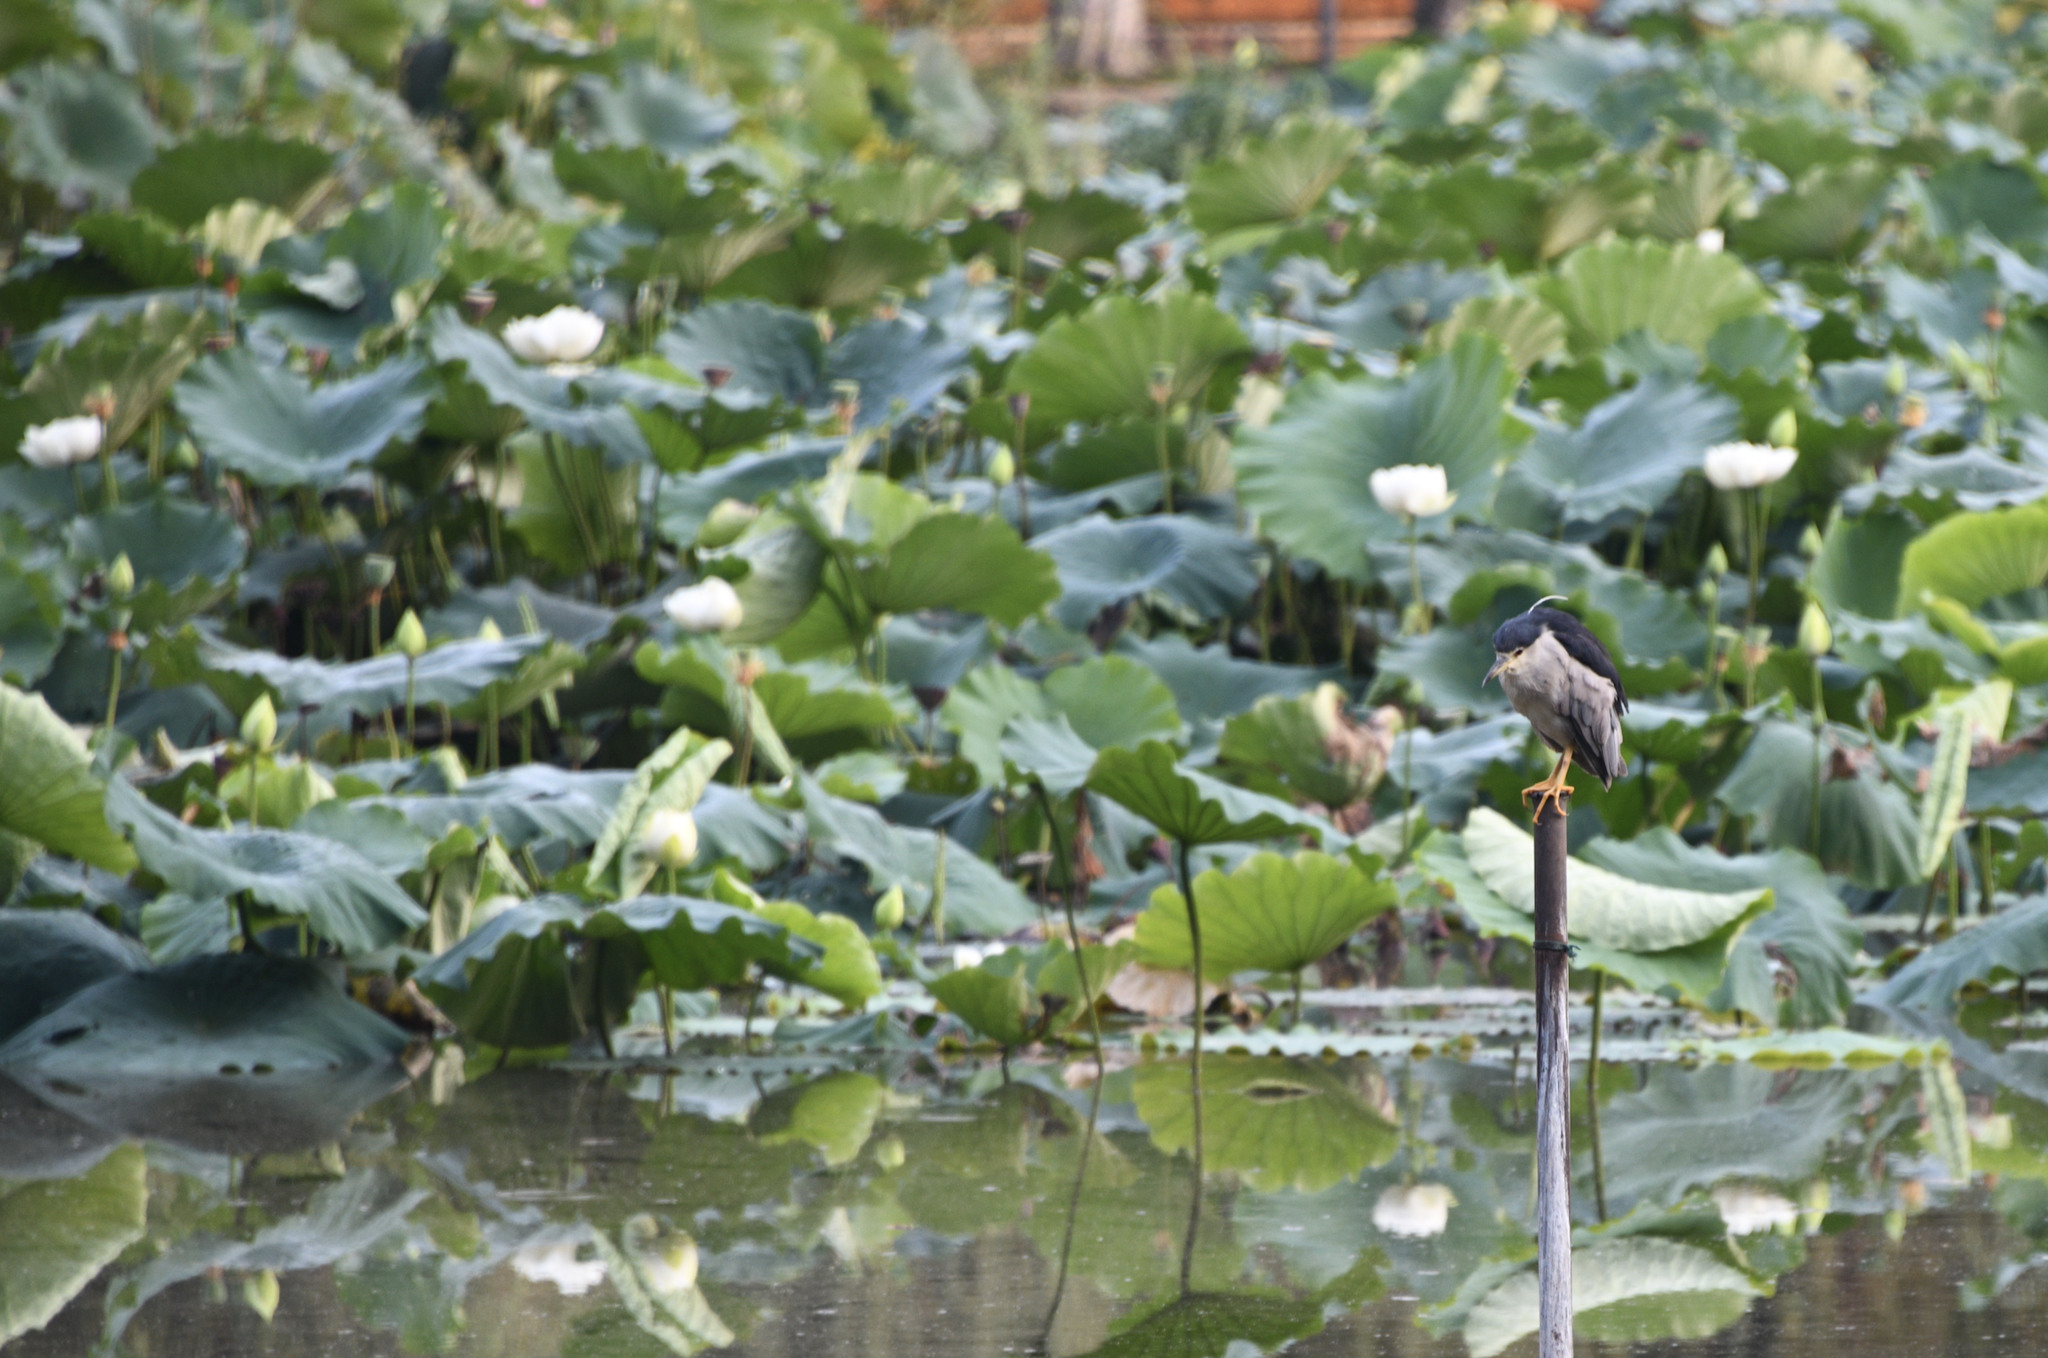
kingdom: Animalia
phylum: Chordata
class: Aves
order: Pelecaniformes
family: Ardeidae
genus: Nycticorax
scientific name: Nycticorax nycticorax
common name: Black-crowned night heron
